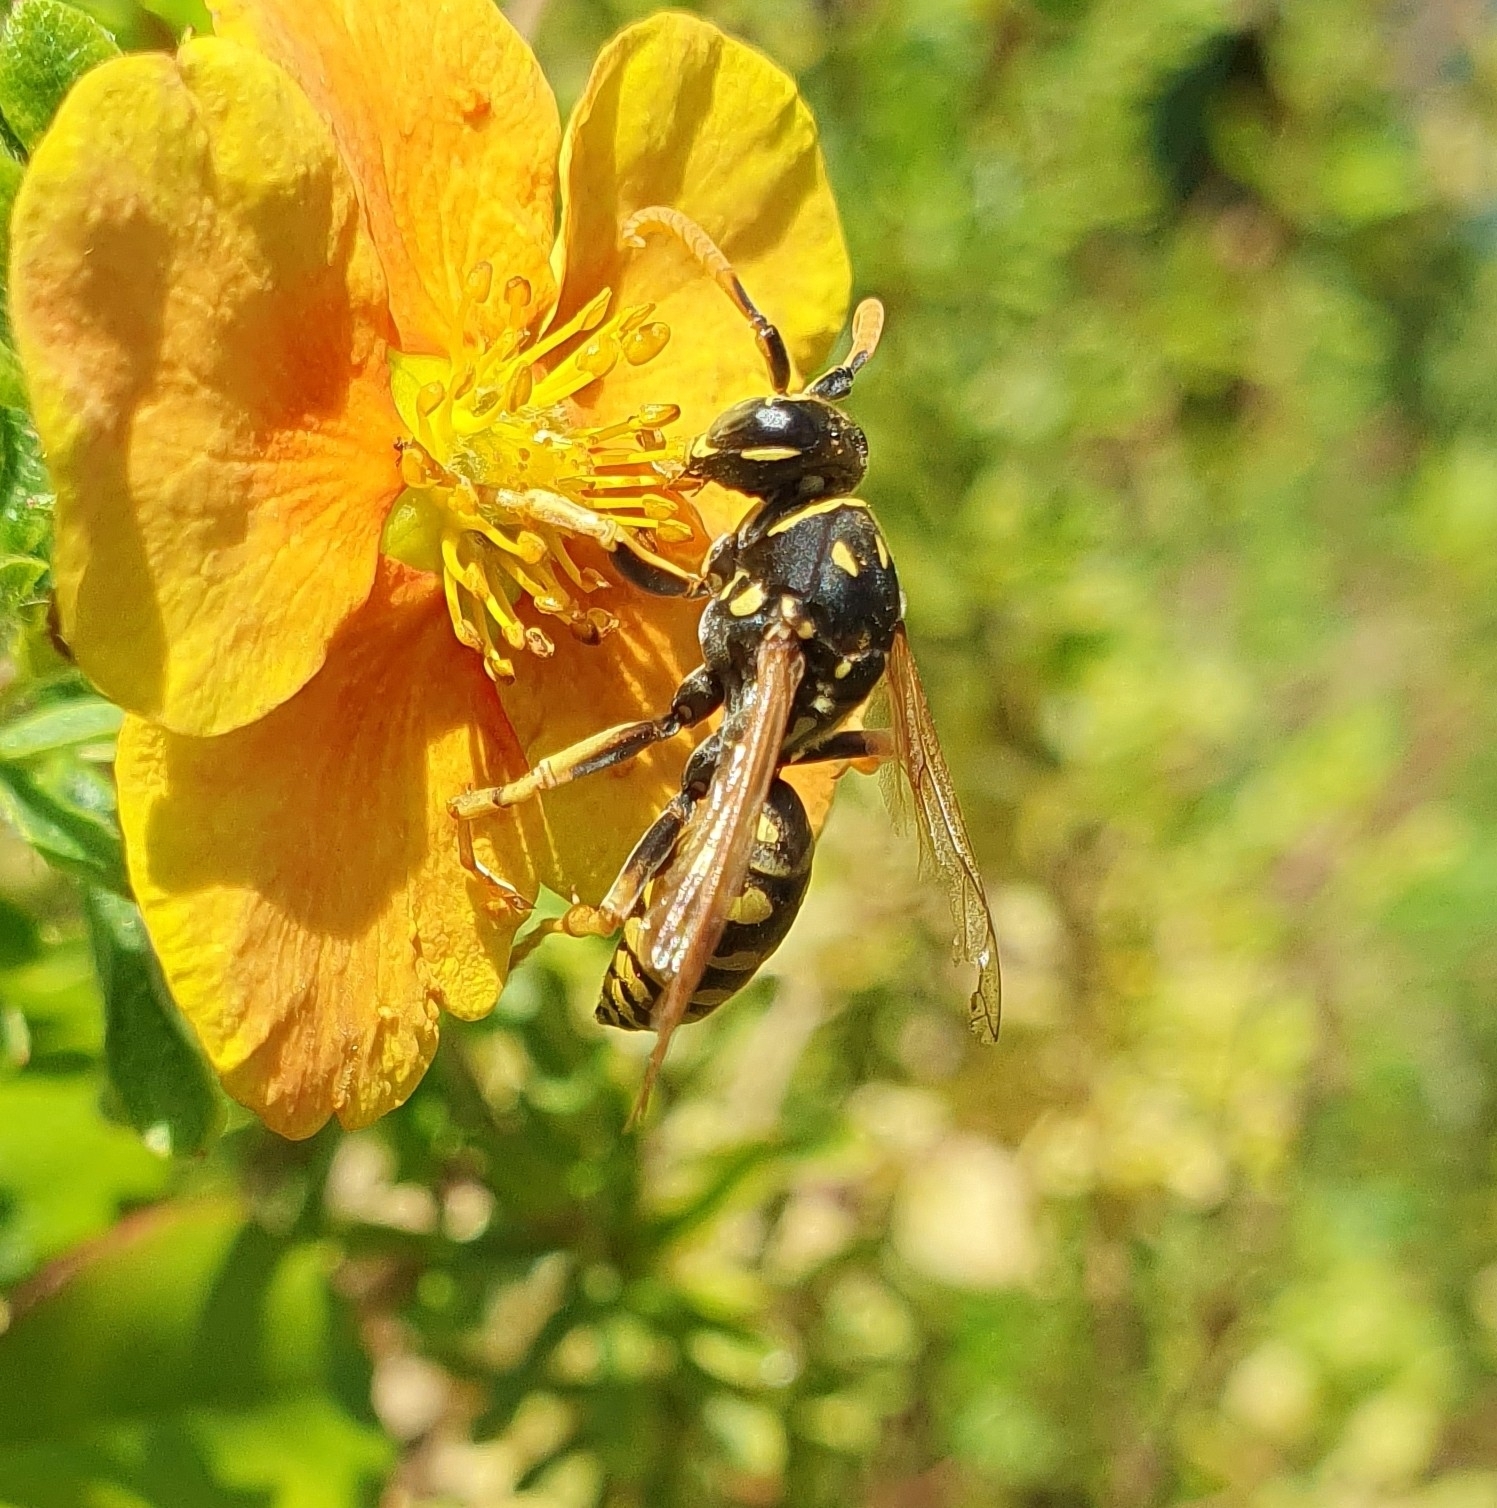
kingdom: Animalia
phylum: Arthropoda
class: Insecta
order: Hymenoptera
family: Eumenidae
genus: Polistes
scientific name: Polistes dominula
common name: Paper wasp
